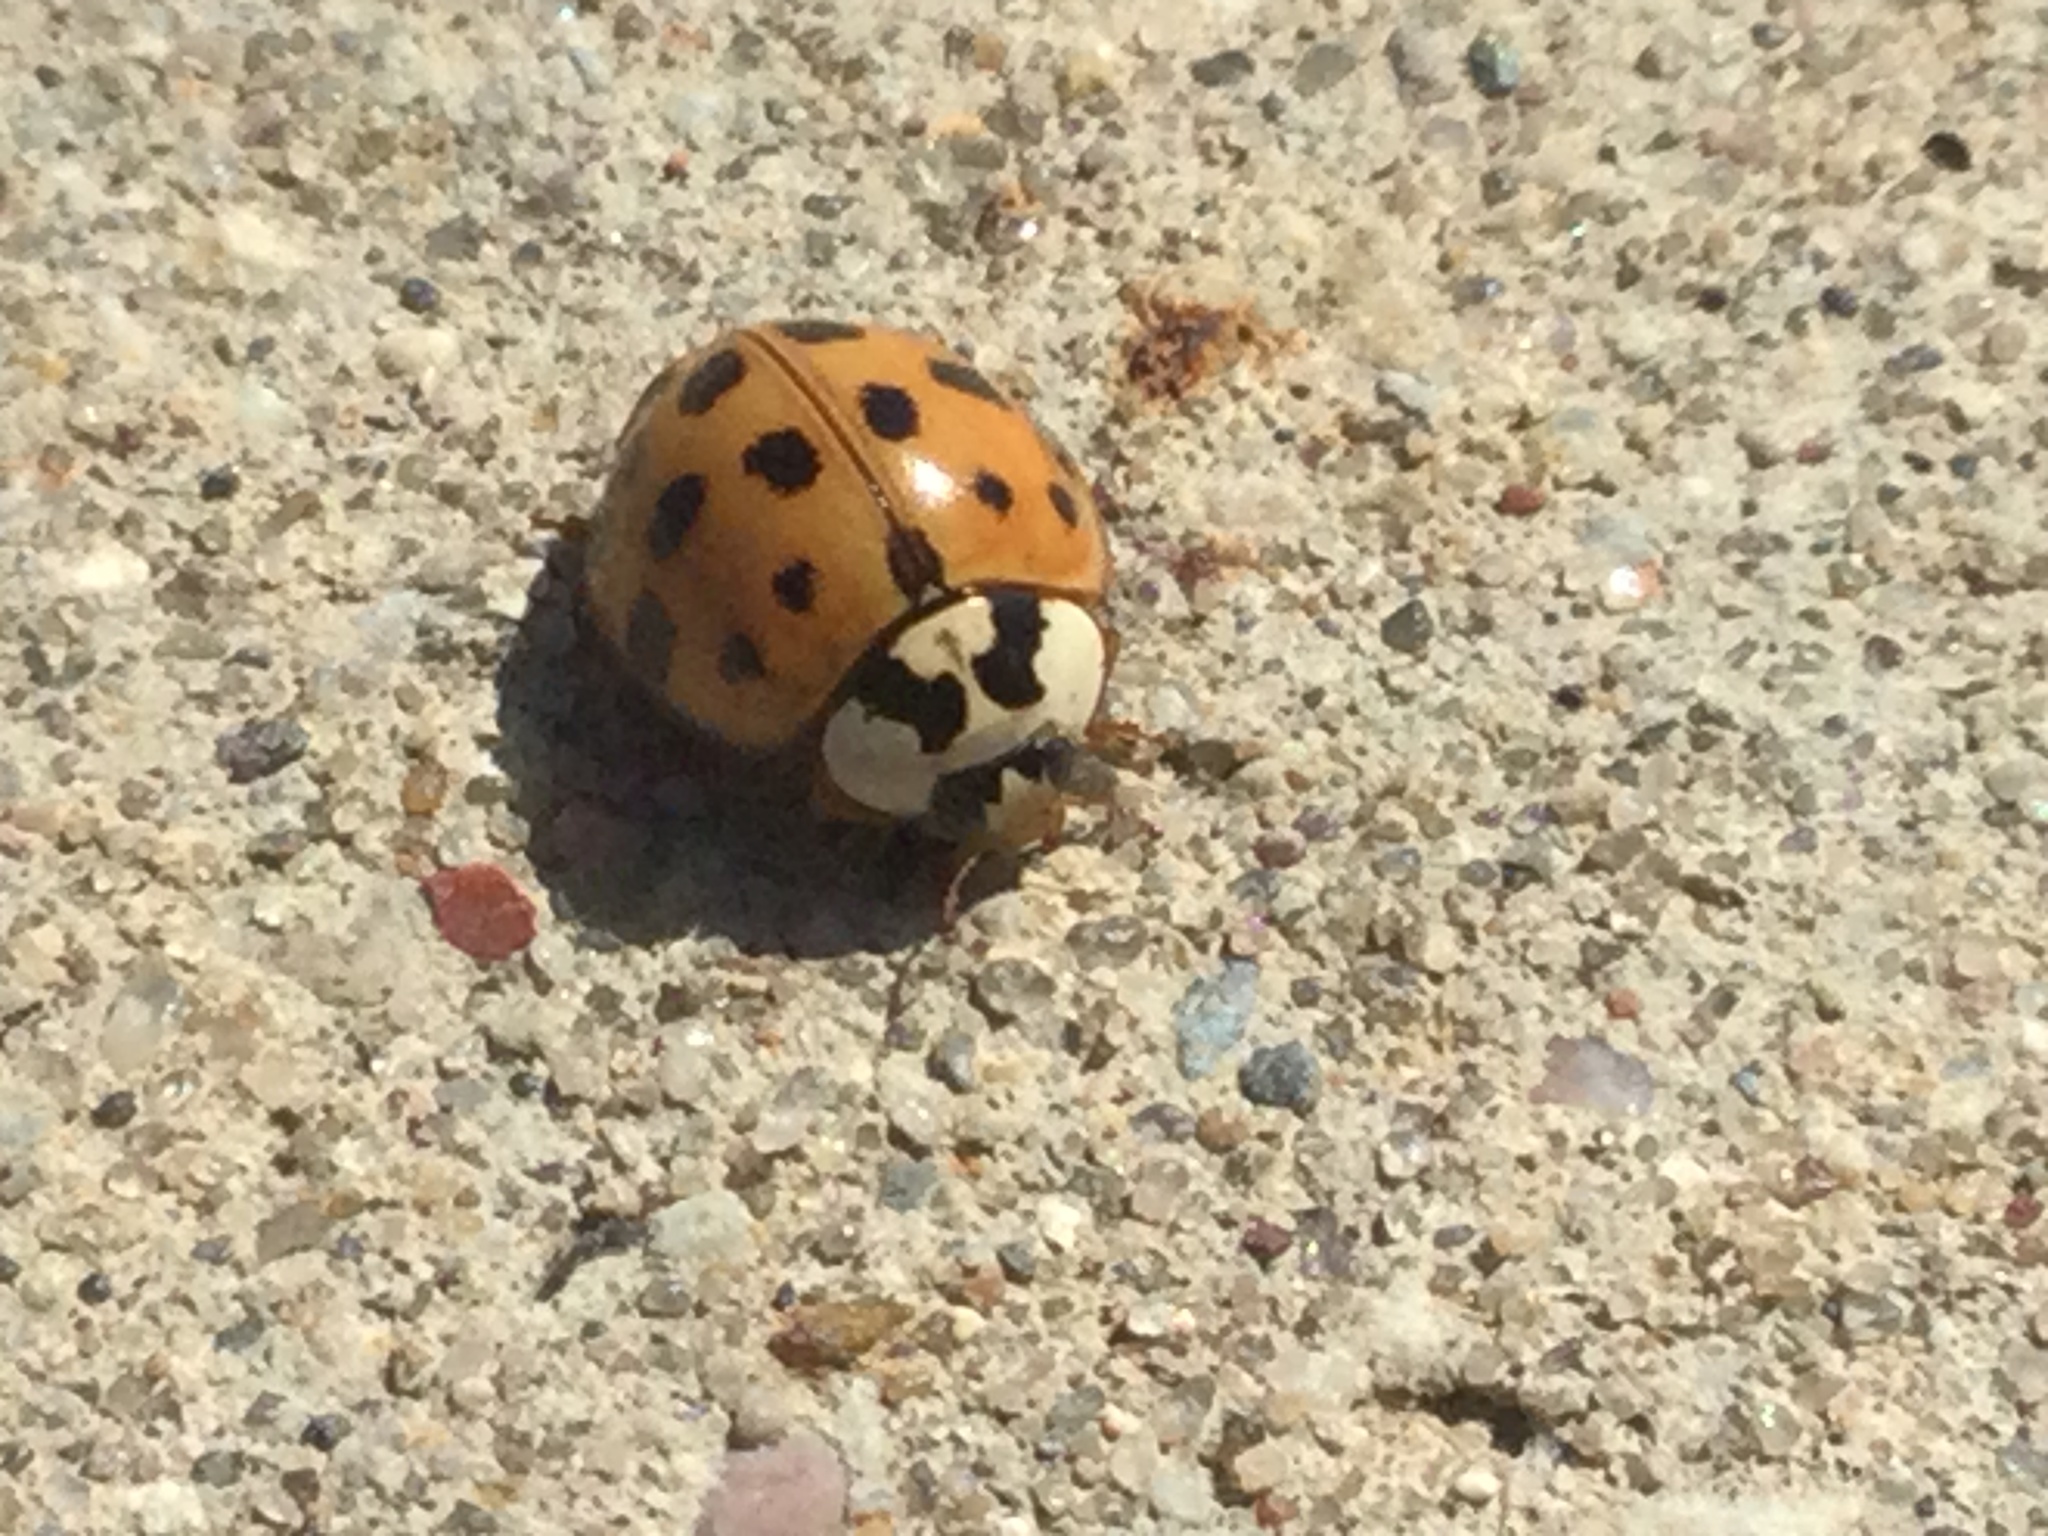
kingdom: Animalia
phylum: Arthropoda
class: Insecta
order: Coleoptera
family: Coccinellidae
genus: Harmonia
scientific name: Harmonia axyridis
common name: Harlequin ladybird
